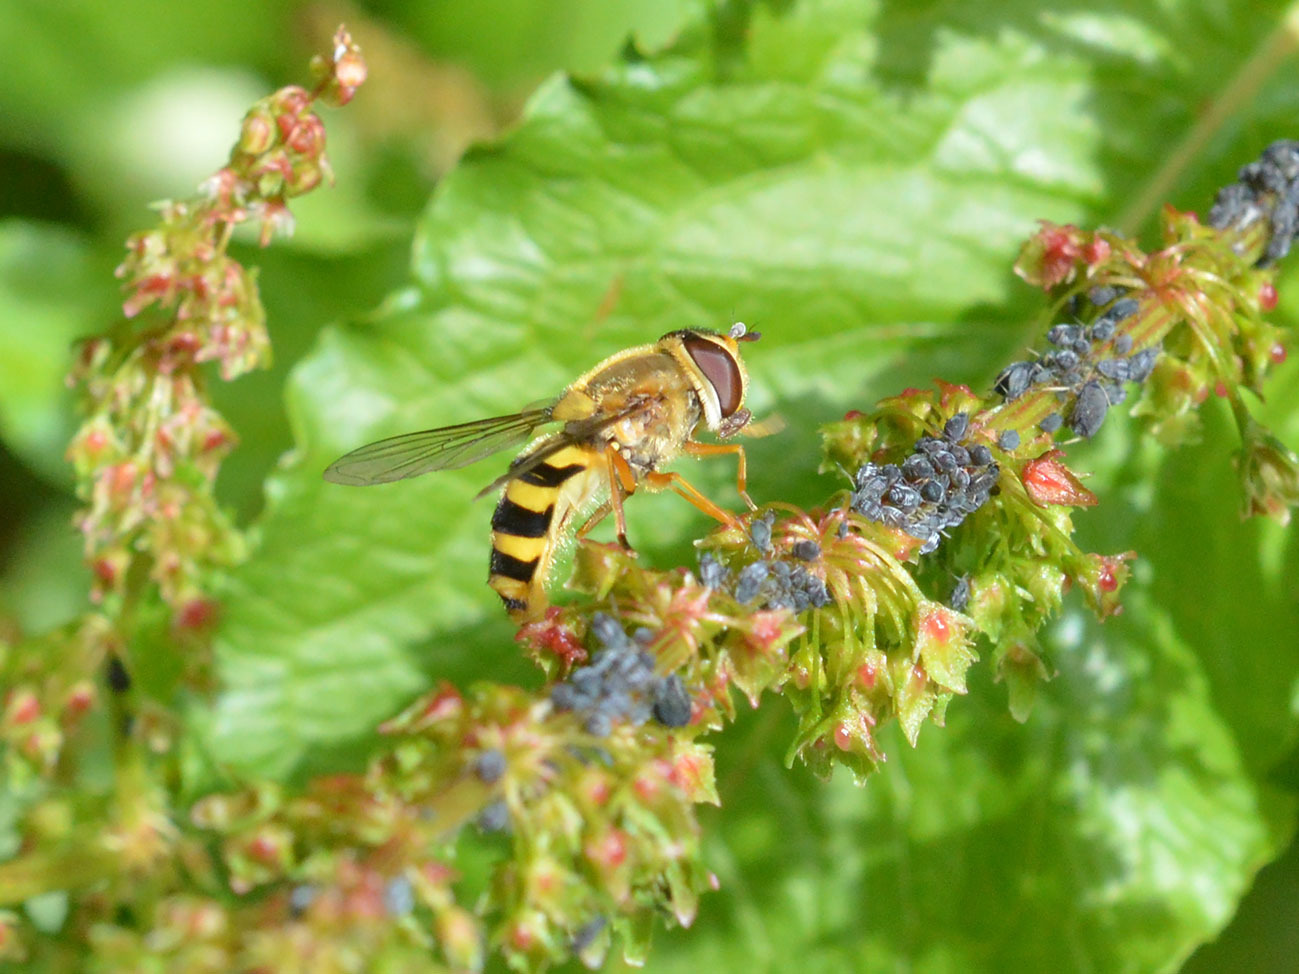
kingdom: Animalia
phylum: Arthropoda
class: Insecta
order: Diptera
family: Syrphidae
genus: Syrphus
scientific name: Syrphus ribesii
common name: Common flower fly
